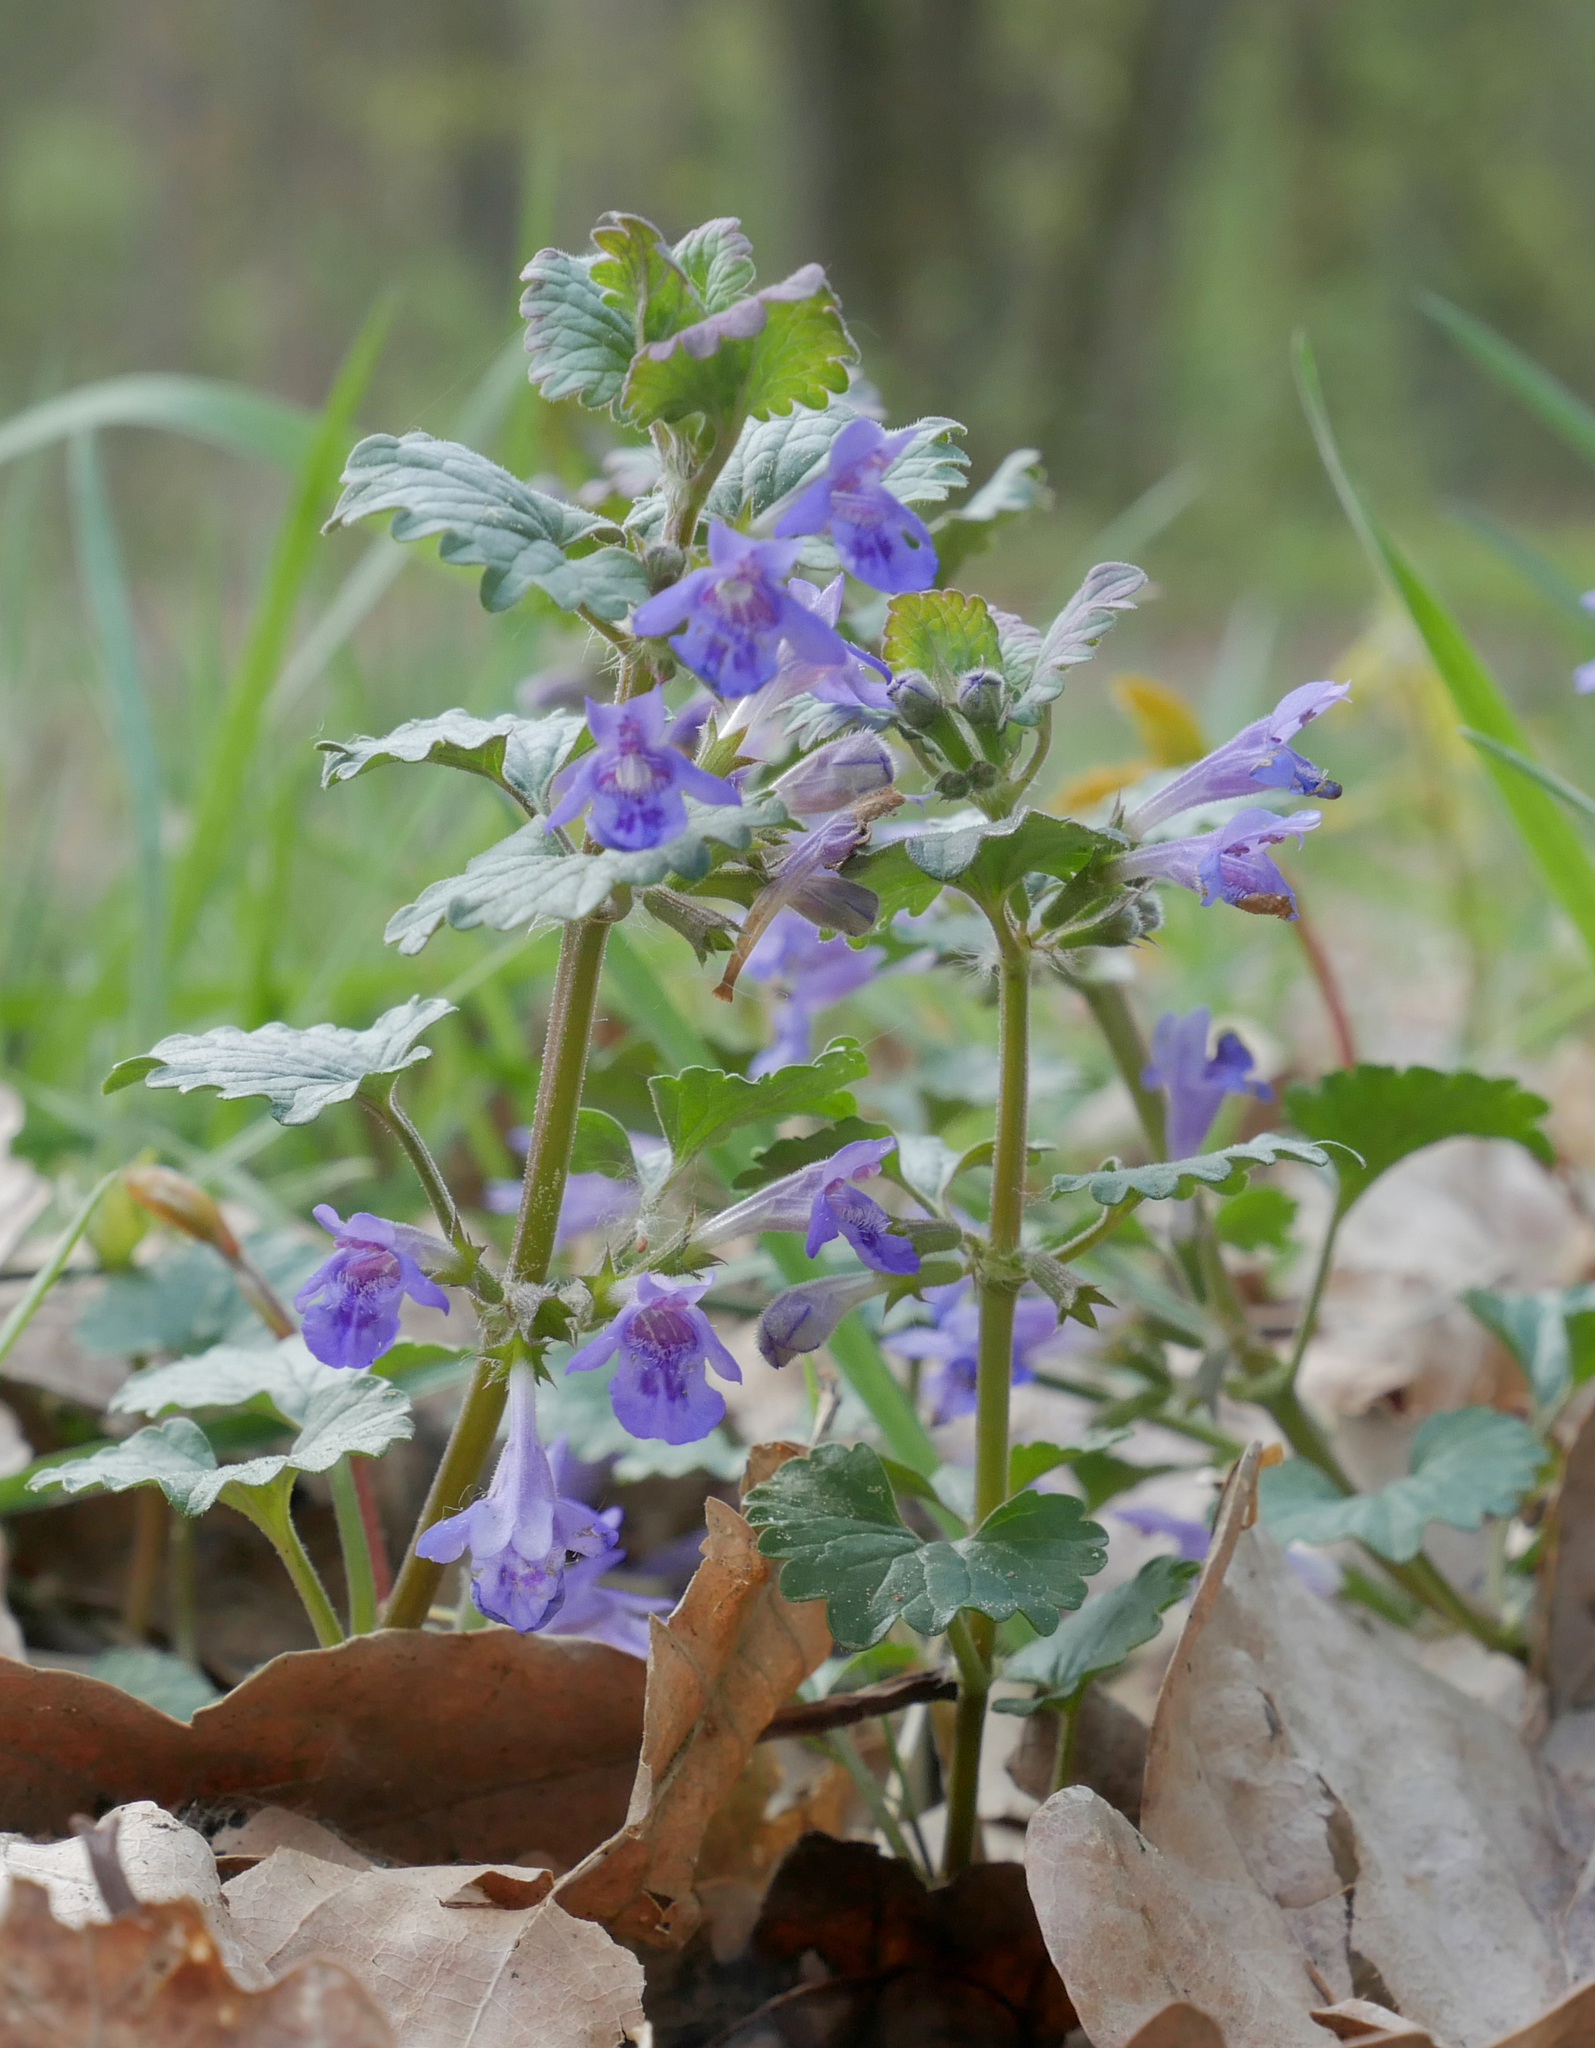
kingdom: Plantae
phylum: Tracheophyta
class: Magnoliopsida
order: Lamiales
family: Lamiaceae
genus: Glechoma
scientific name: Glechoma hederacea
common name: Ground ivy
